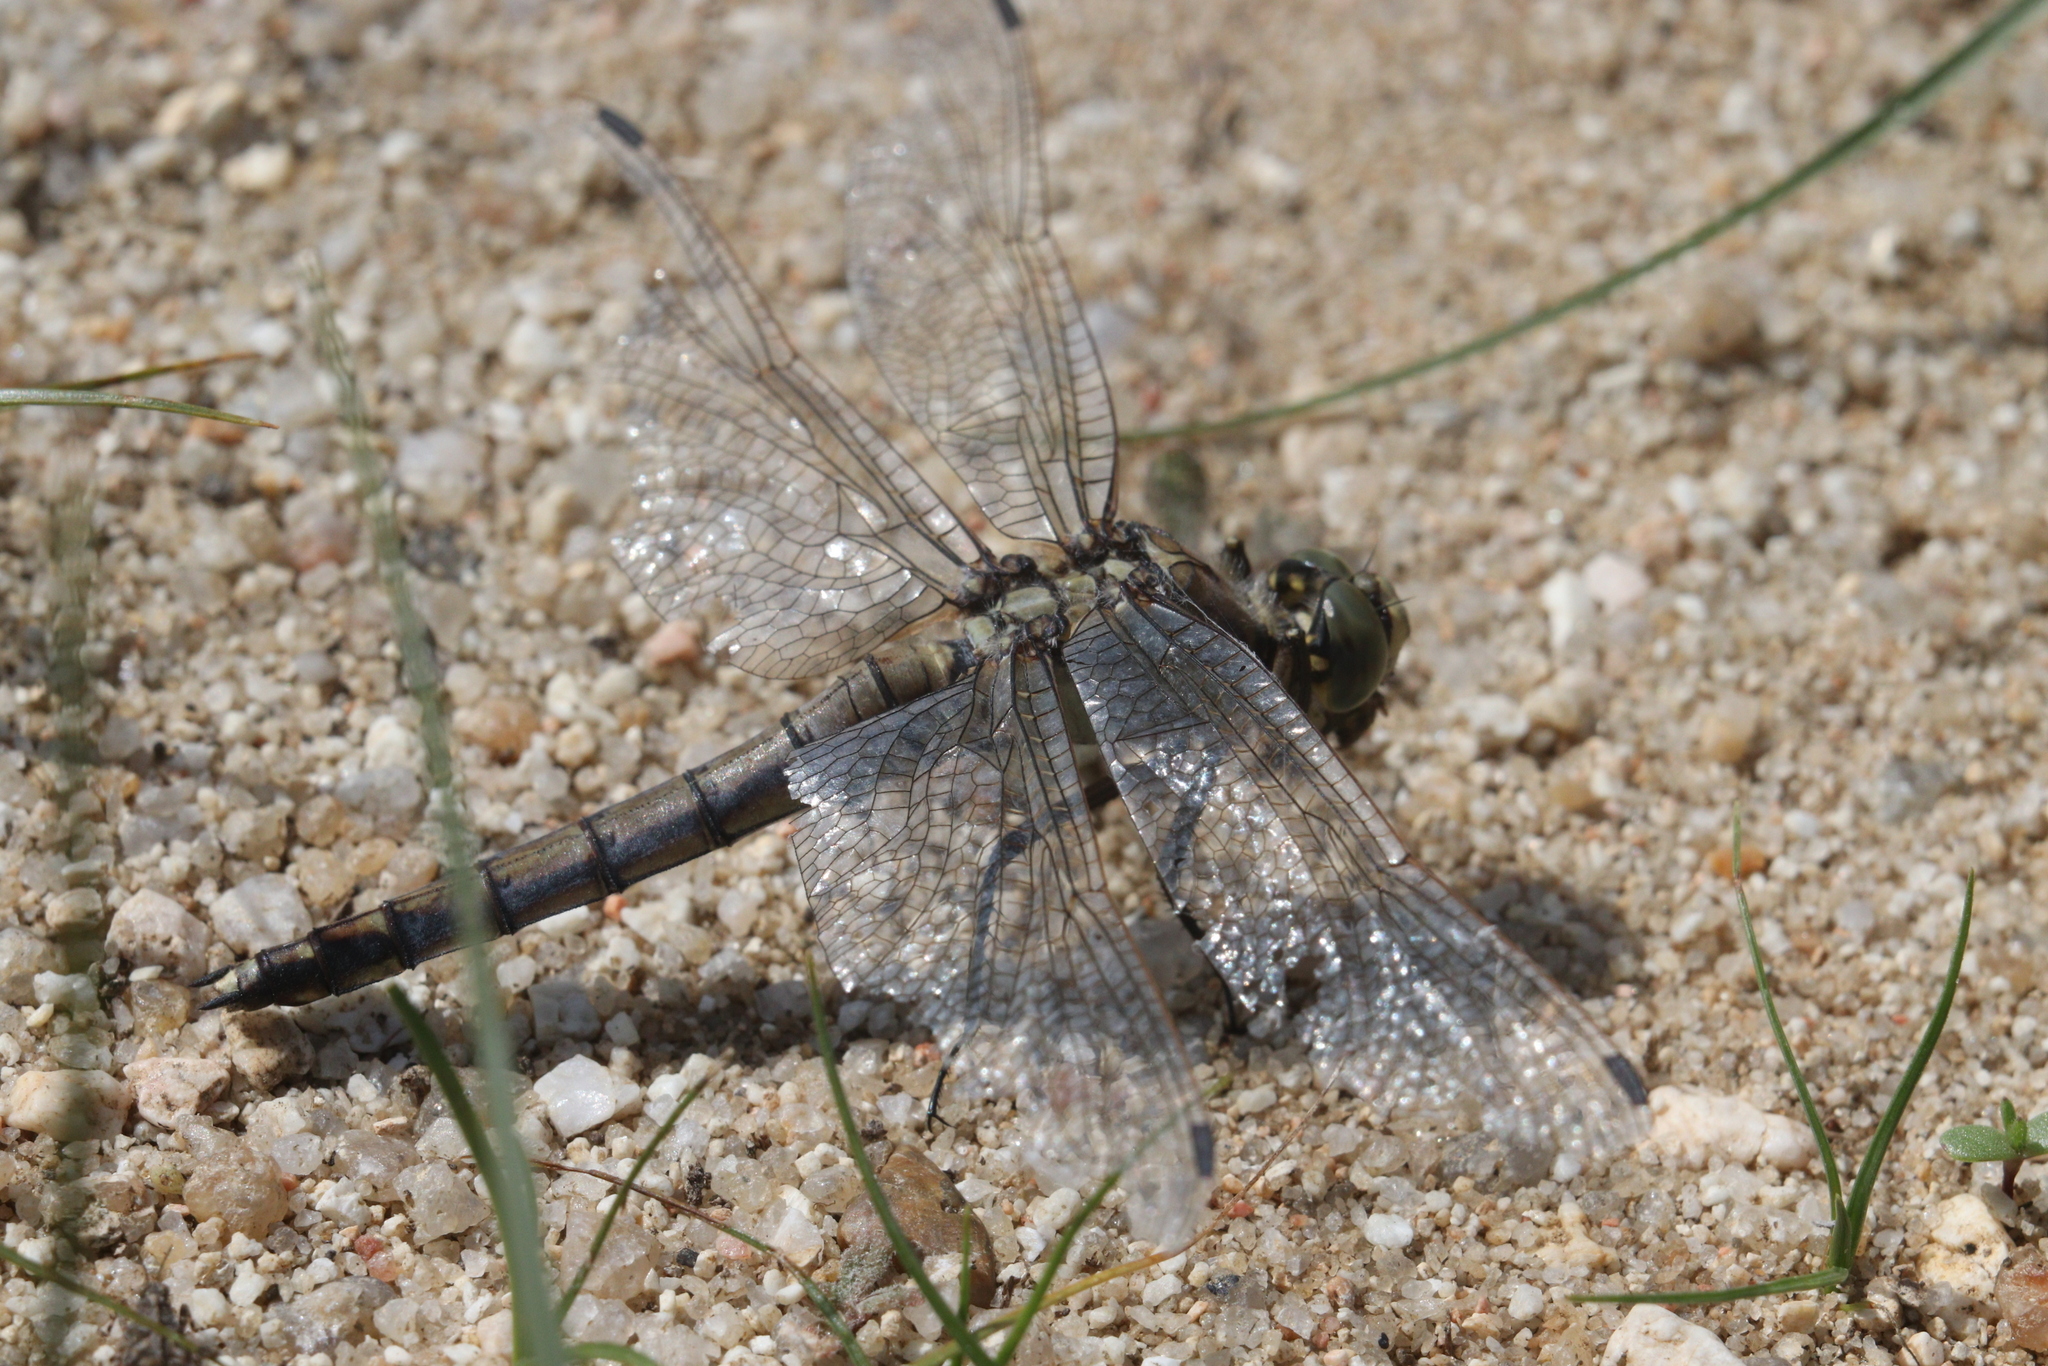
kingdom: Animalia
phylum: Arthropoda
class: Insecta
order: Odonata
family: Libellulidae
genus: Orthetrum
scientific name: Orthetrum cancellatum
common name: Black-tailed skimmer
